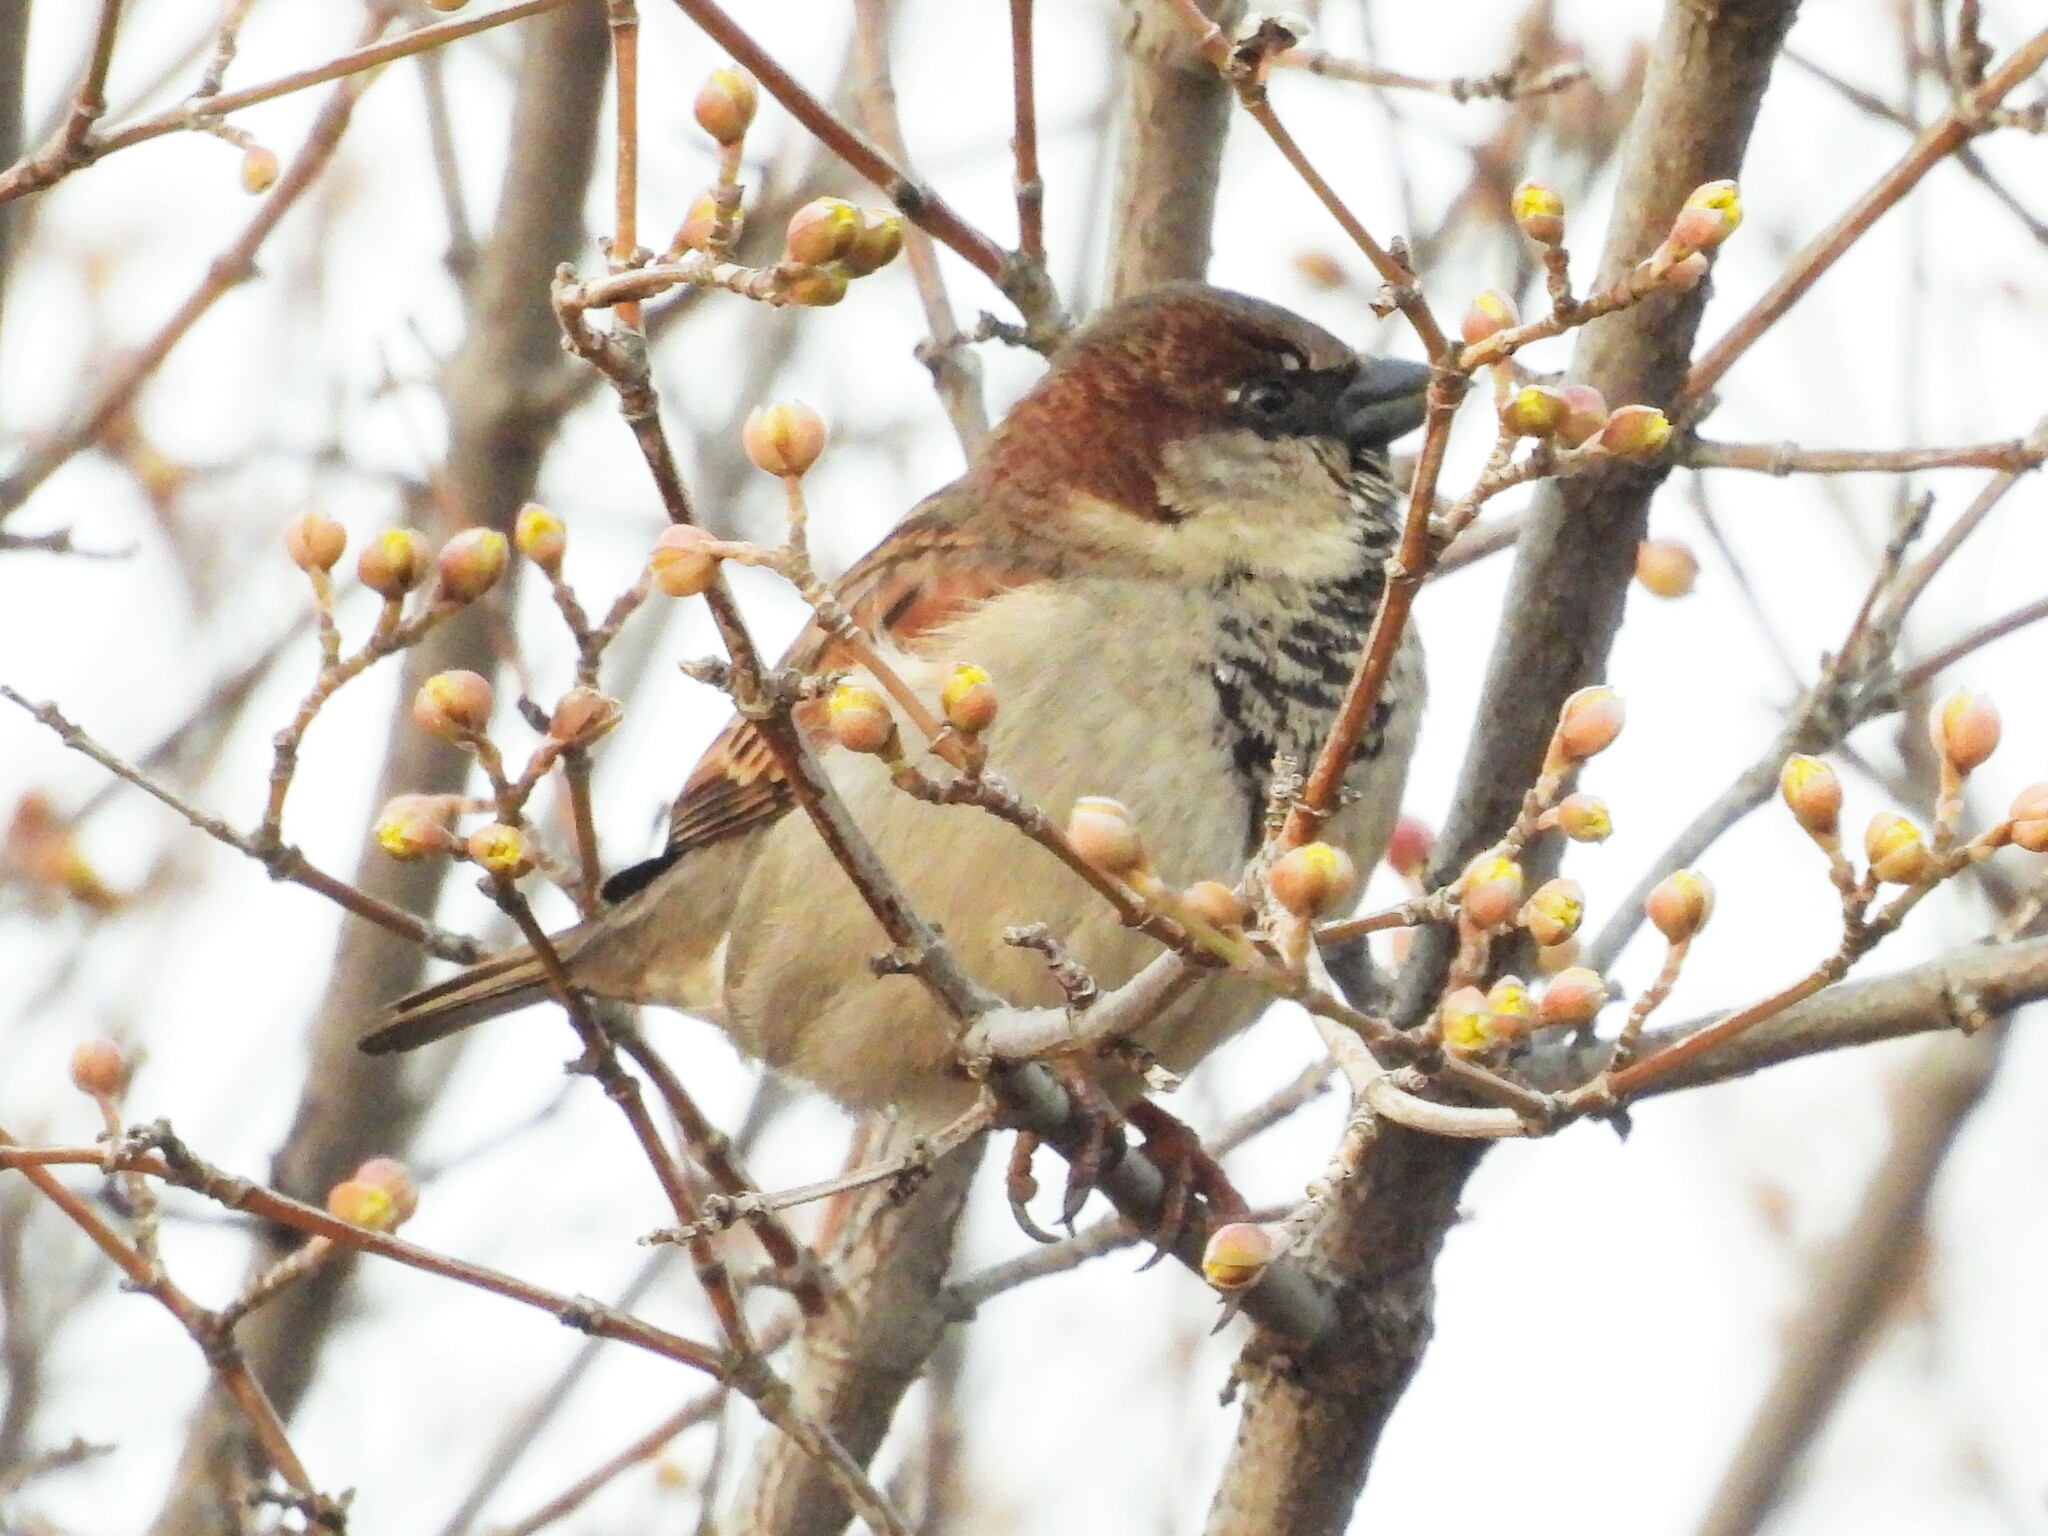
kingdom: Animalia
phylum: Chordata
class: Aves
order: Passeriformes
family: Passeridae
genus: Passer
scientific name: Passer domesticus
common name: House sparrow
